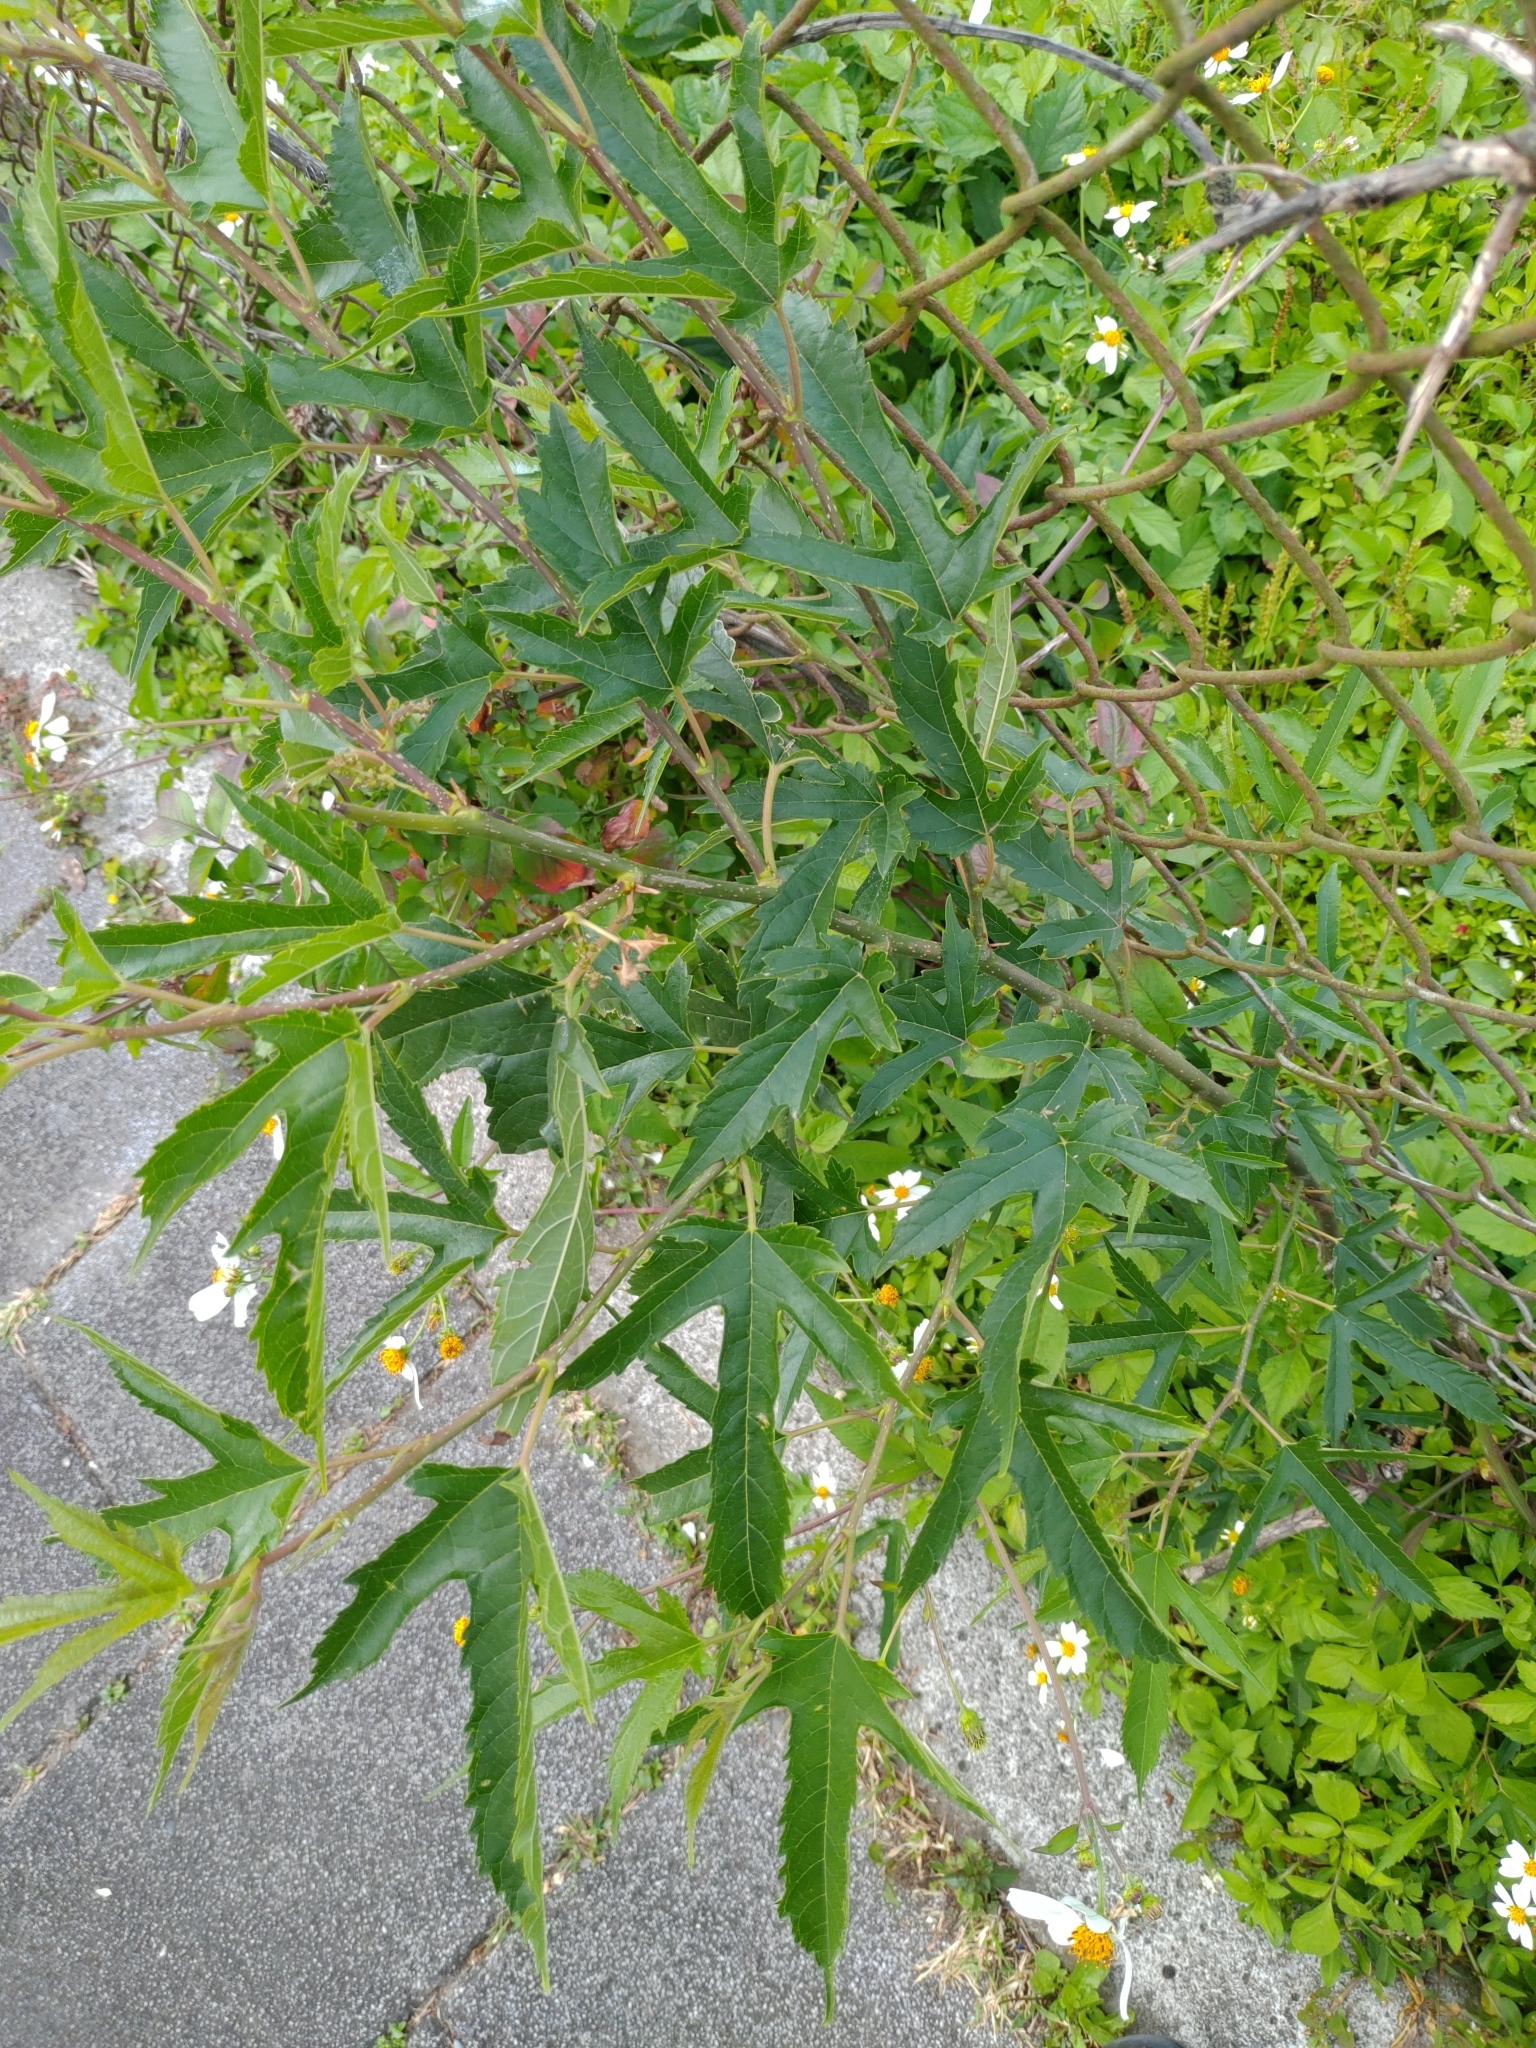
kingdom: Plantae
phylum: Tracheophyta
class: Magnoliopsida
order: Rosales
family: Moraceae
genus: Morus
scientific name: Morus indica
